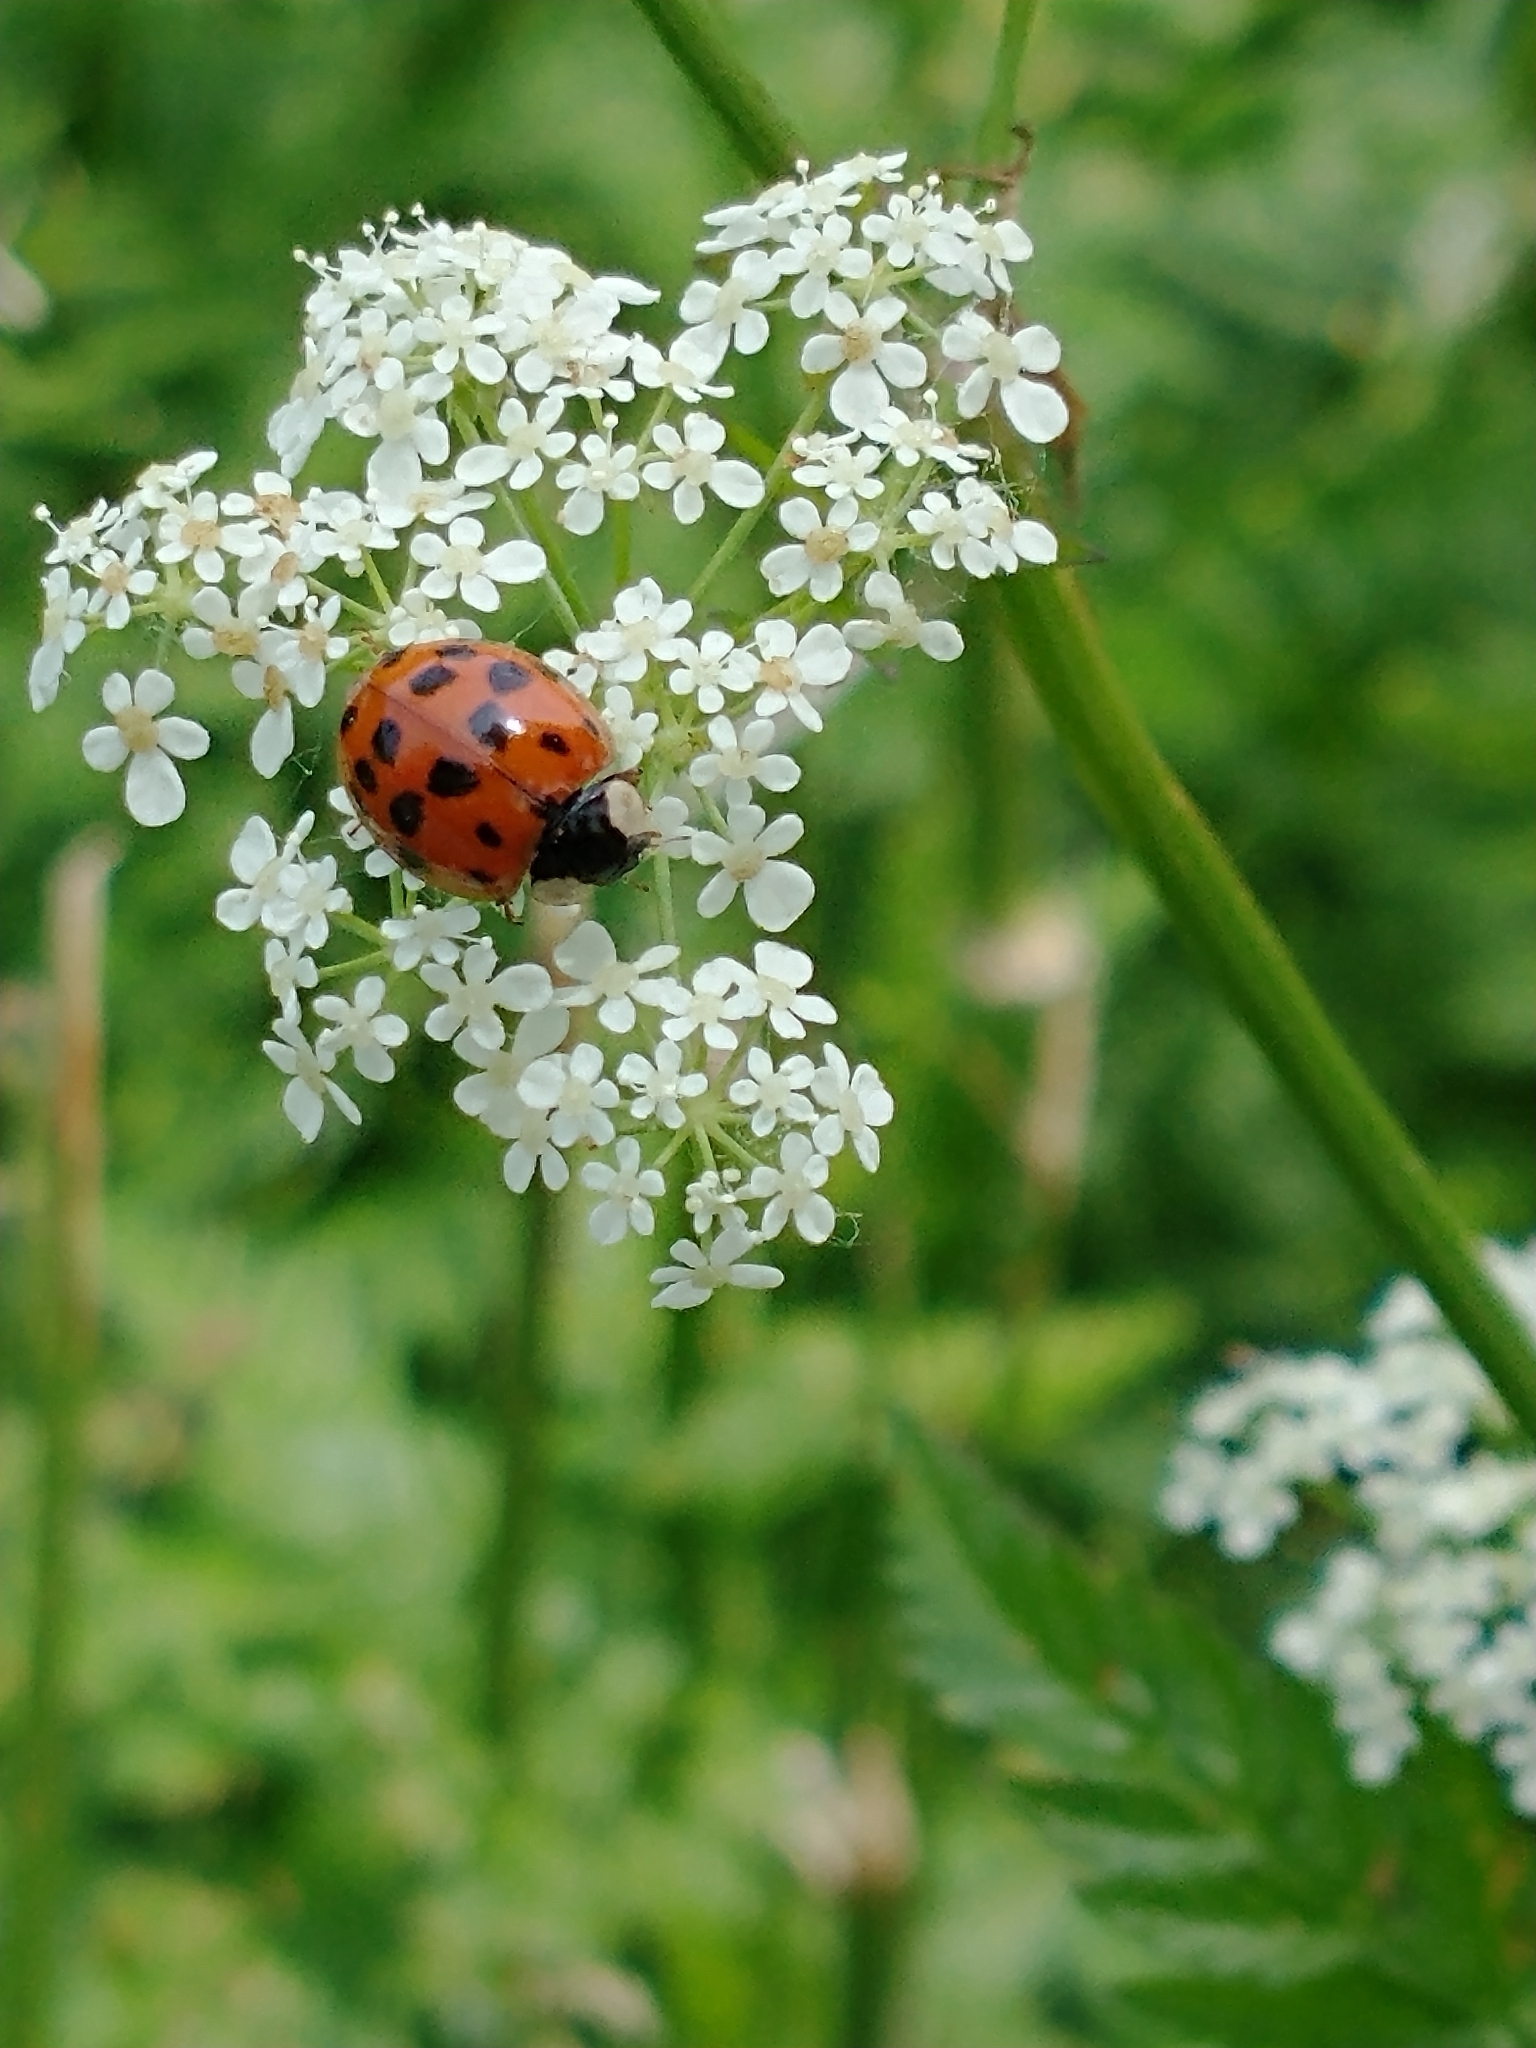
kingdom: Animalia
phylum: Arthropoda
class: Insecta
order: Coleoptera
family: Coccinellidae
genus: Harmonia
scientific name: Harmonia axyridis
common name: Harlequin ladybird
